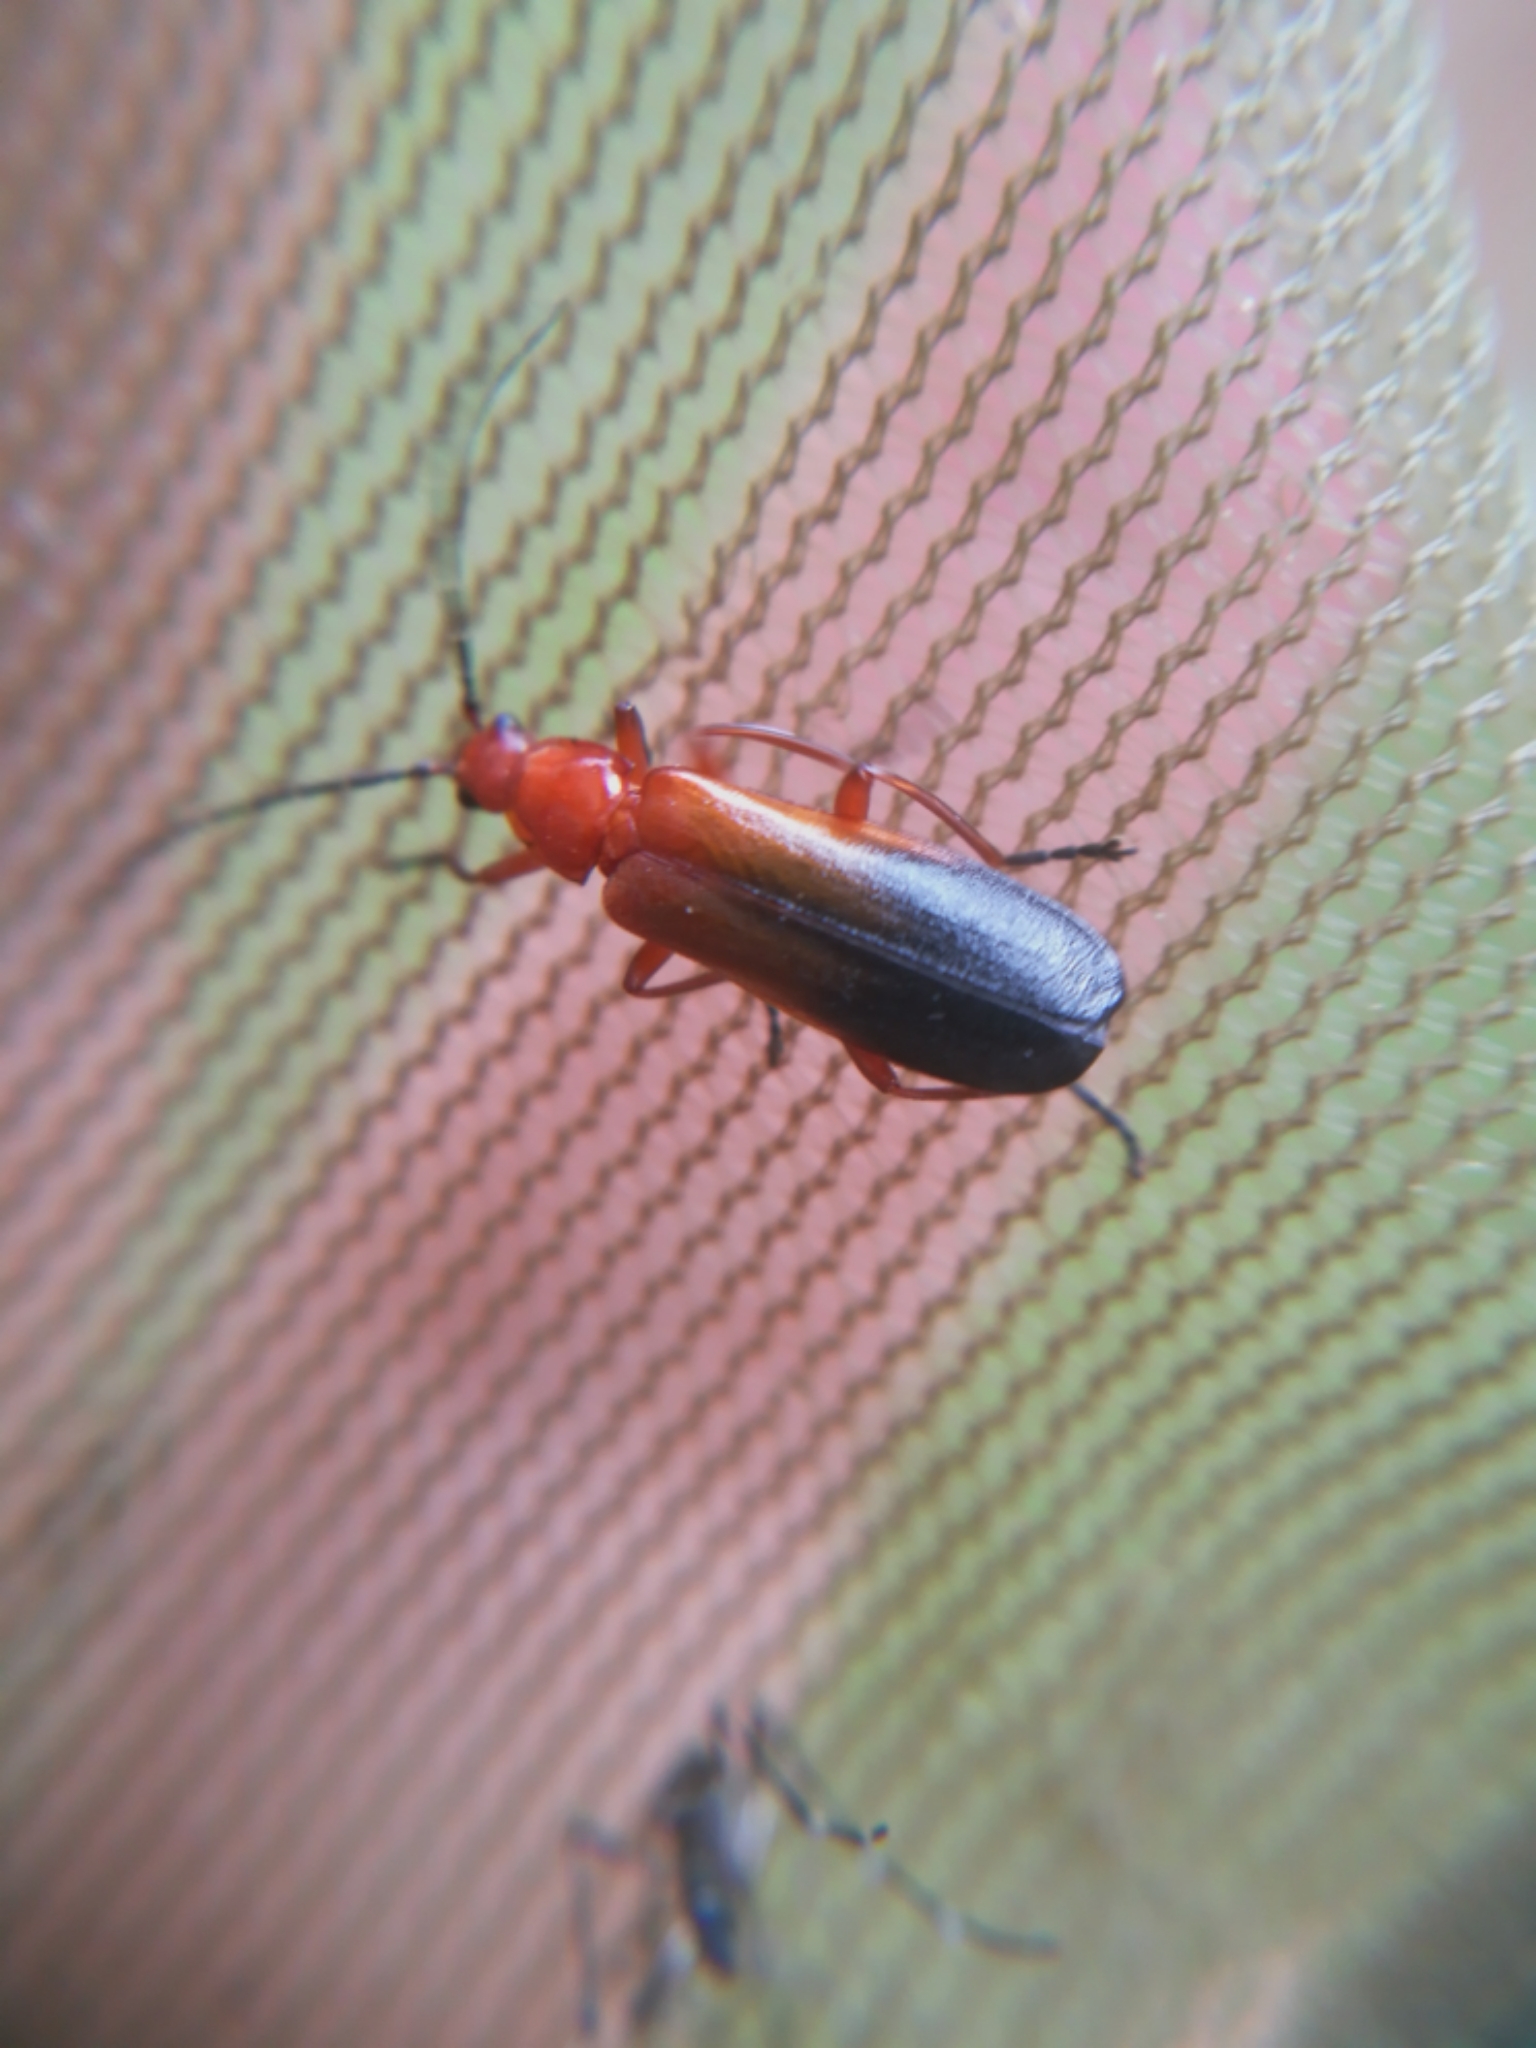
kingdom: Animalia
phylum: Arthropoda
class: Insecta
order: Coleoptera
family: Cantharidae
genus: Rhagonycha
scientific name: Rhagonycha fulva
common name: Common red soldier beetle
